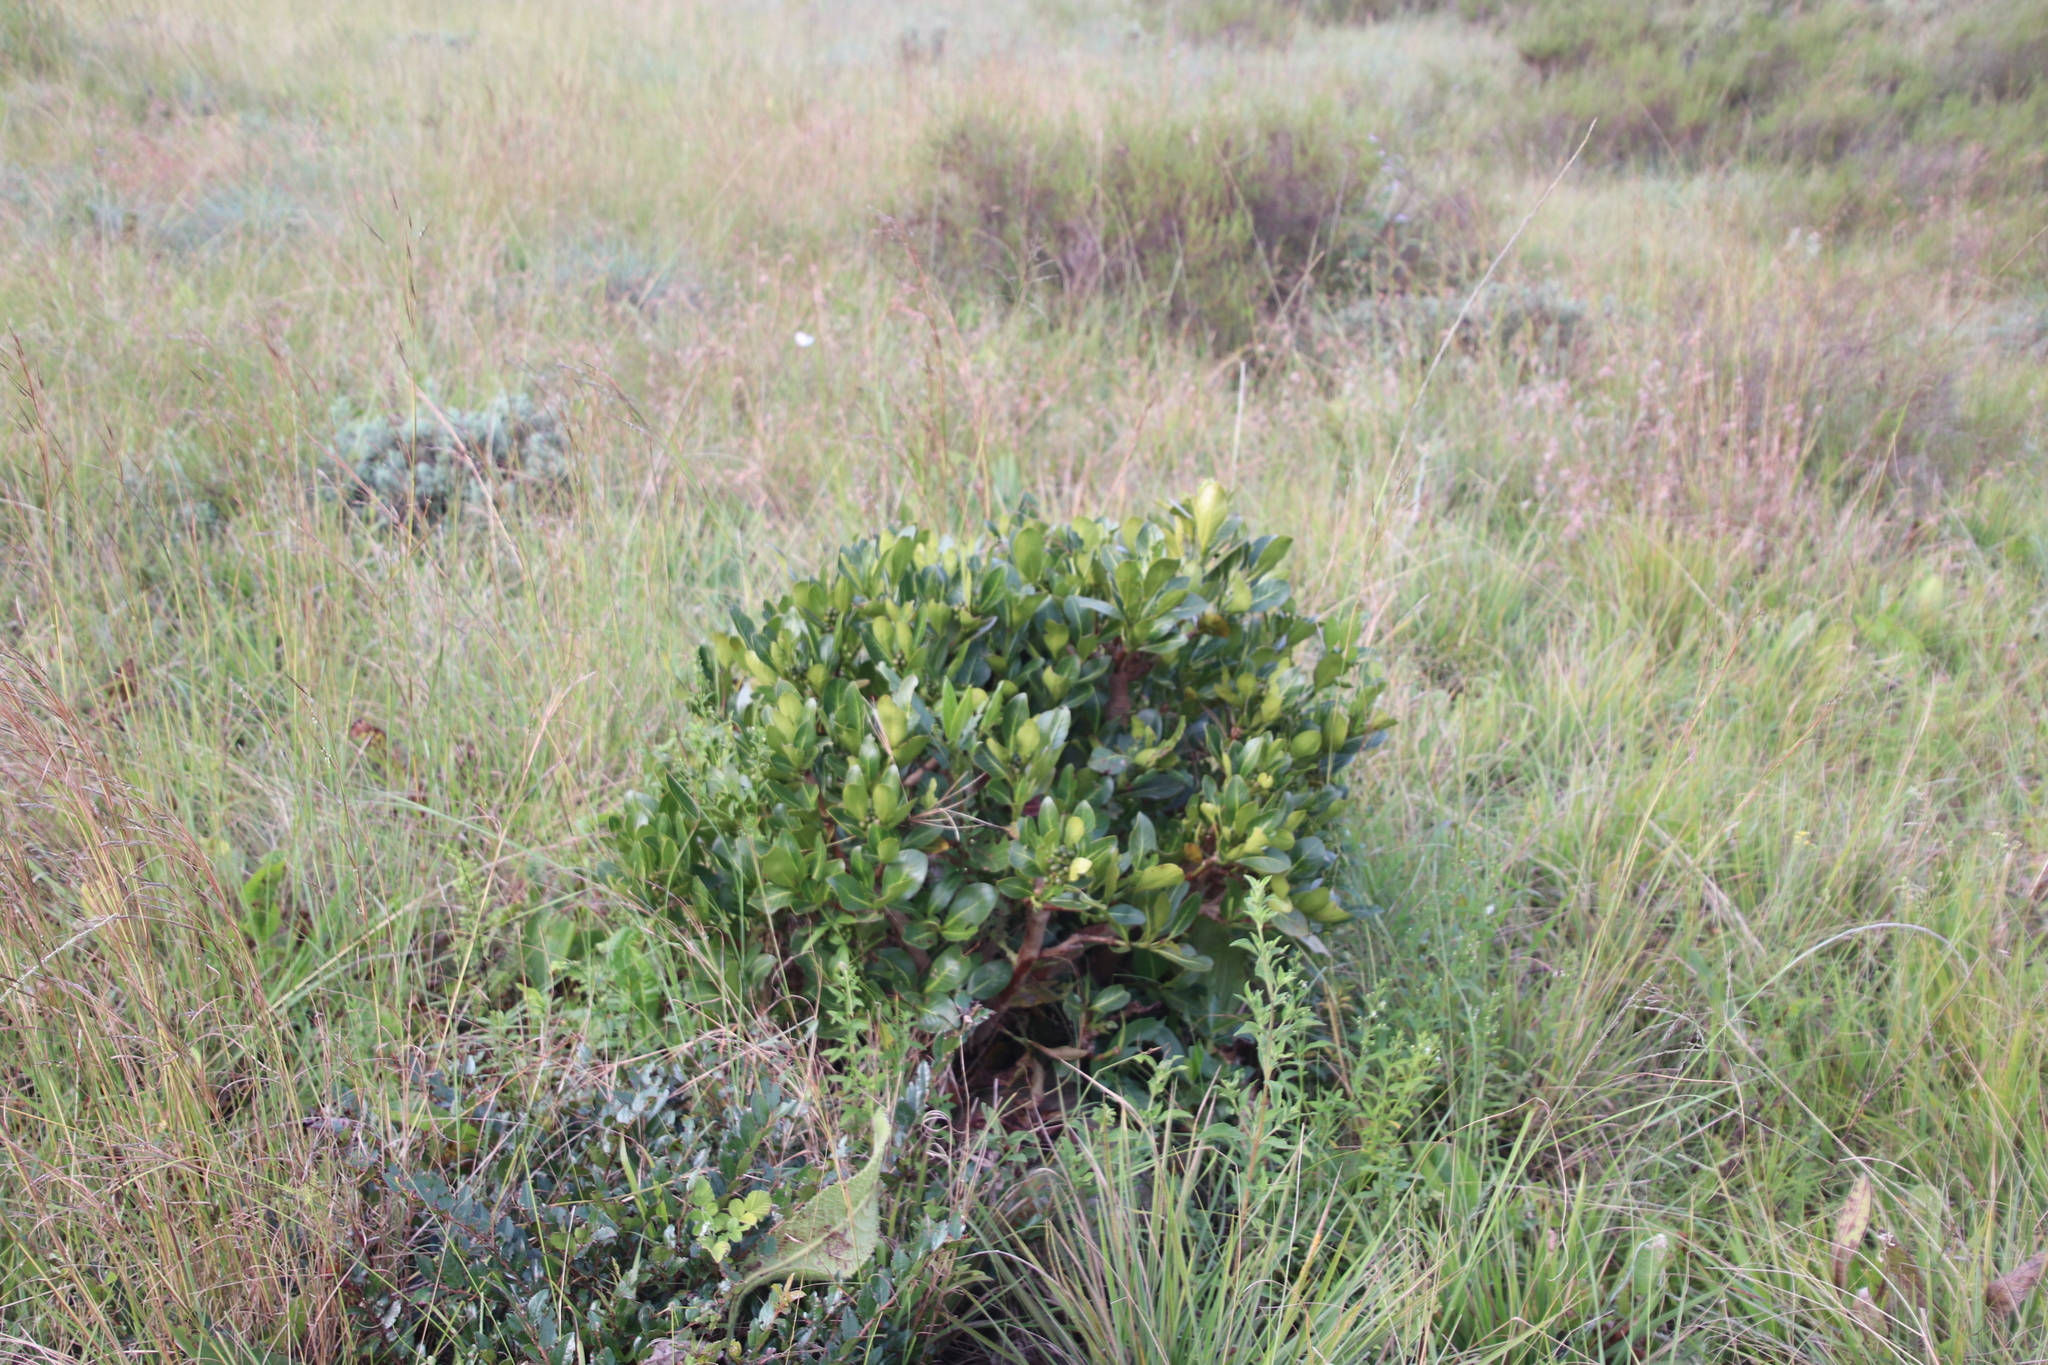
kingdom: Plantae
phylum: Tracheophyta
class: Magnoliopsida
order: Gentianales
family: Rubiaceae
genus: Psychotria
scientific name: Psychotria
